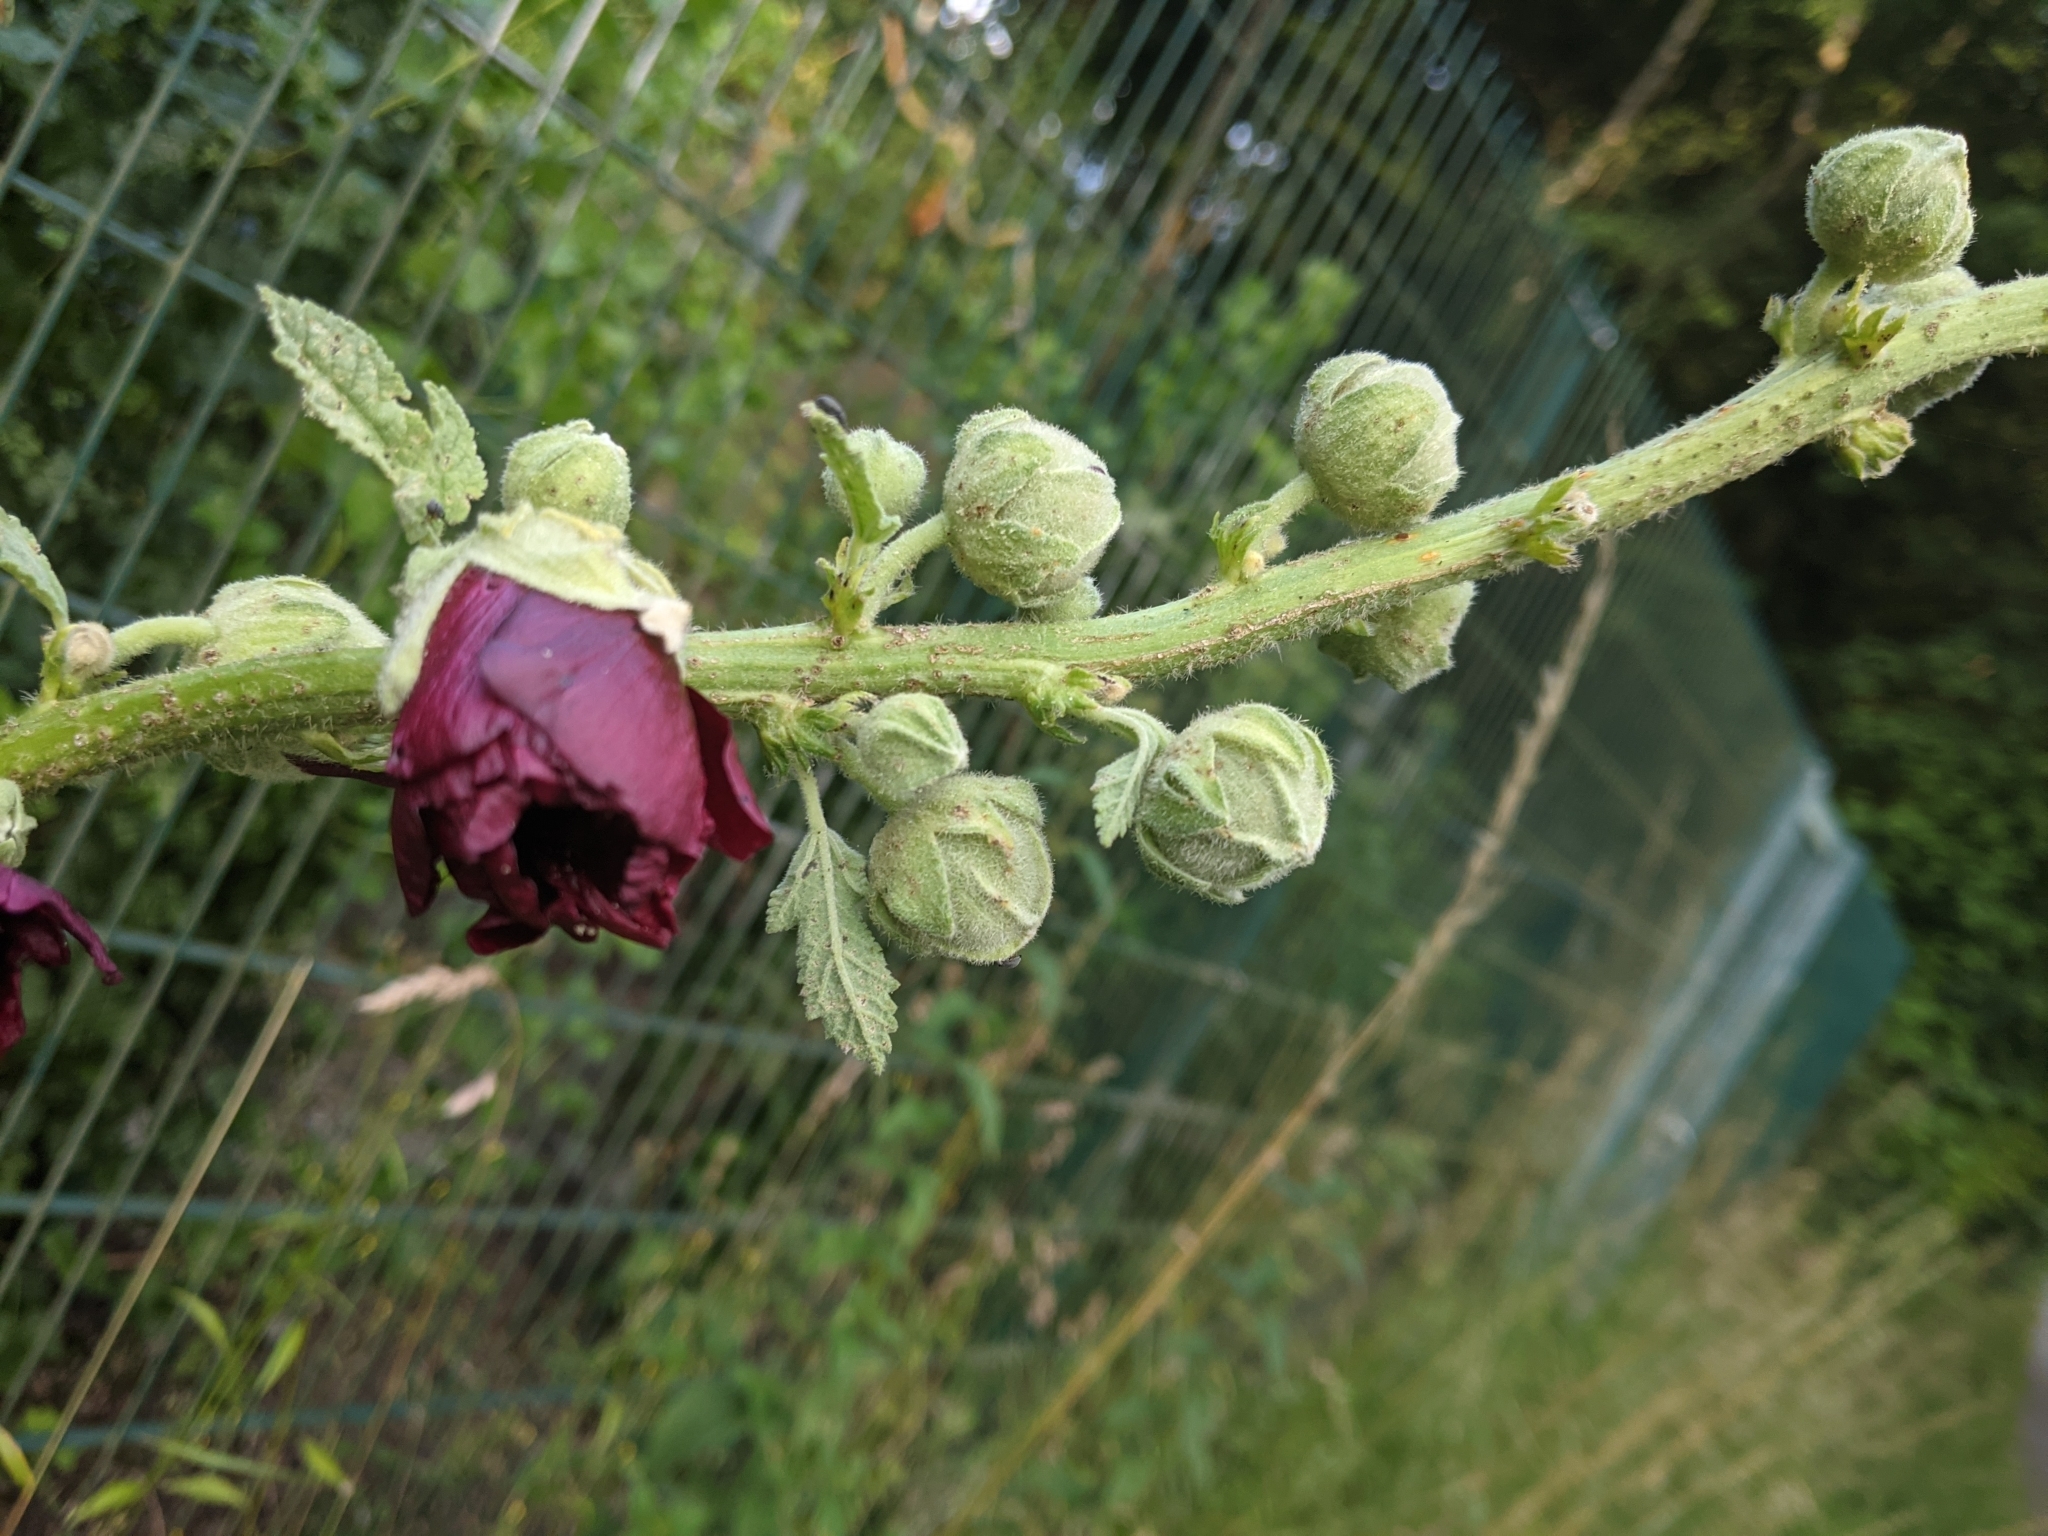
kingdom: Plantae
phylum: Tracheophyta
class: Magnoliopsida
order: Malvales
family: Malvaceae
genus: Alcea
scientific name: Alcea rosea
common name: Hollyhock
